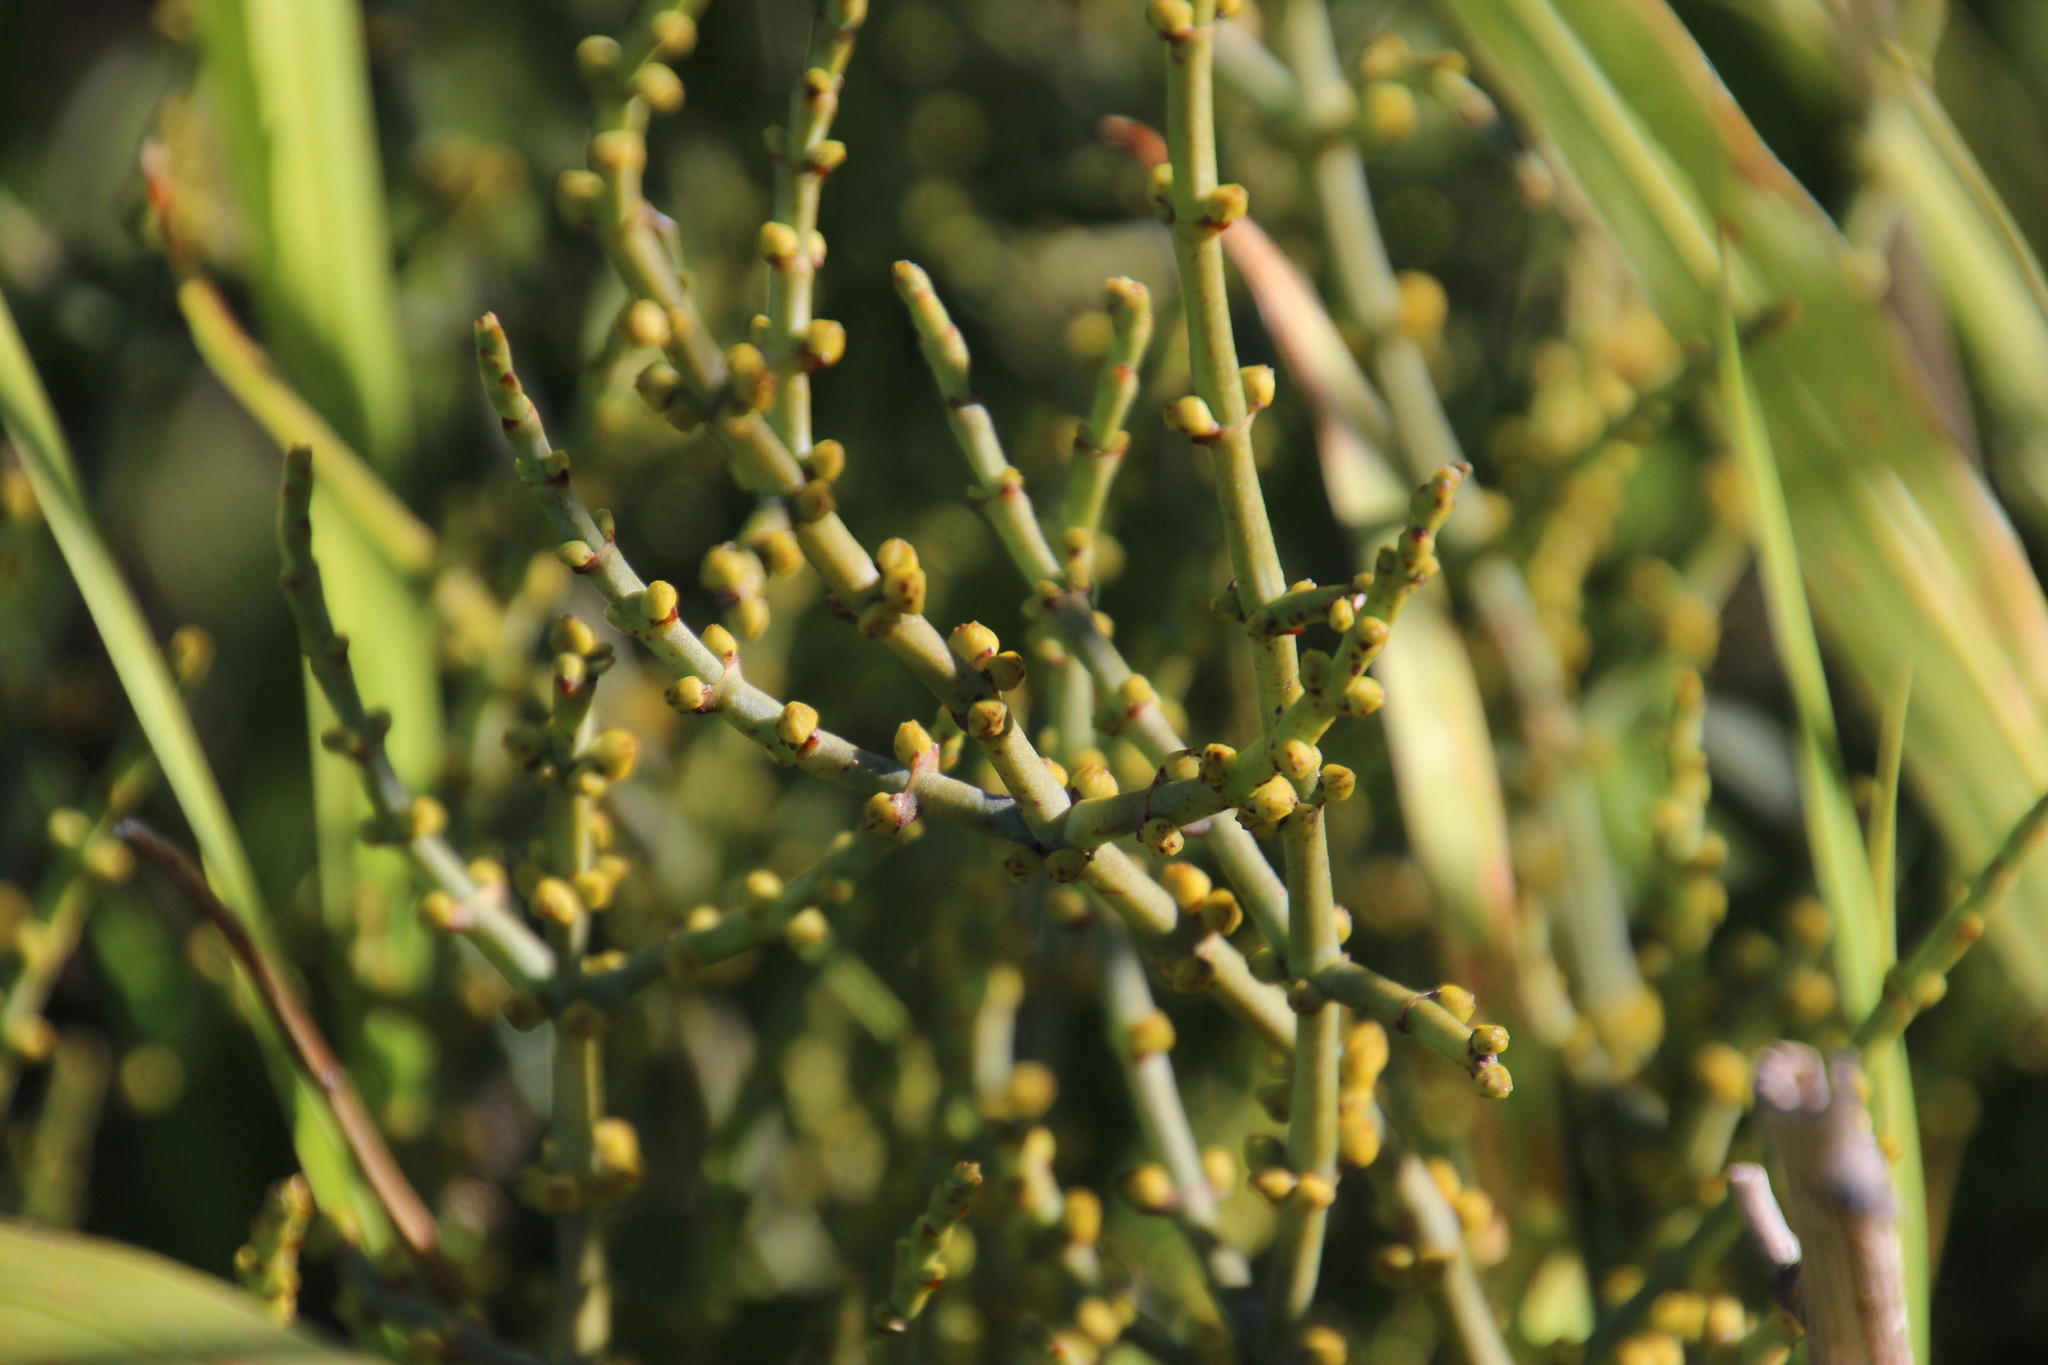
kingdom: Plantae
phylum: Tracheophyta
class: Magnoliopsida
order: Santalales
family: Viscaceae
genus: Viscum
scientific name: Viscum capense
